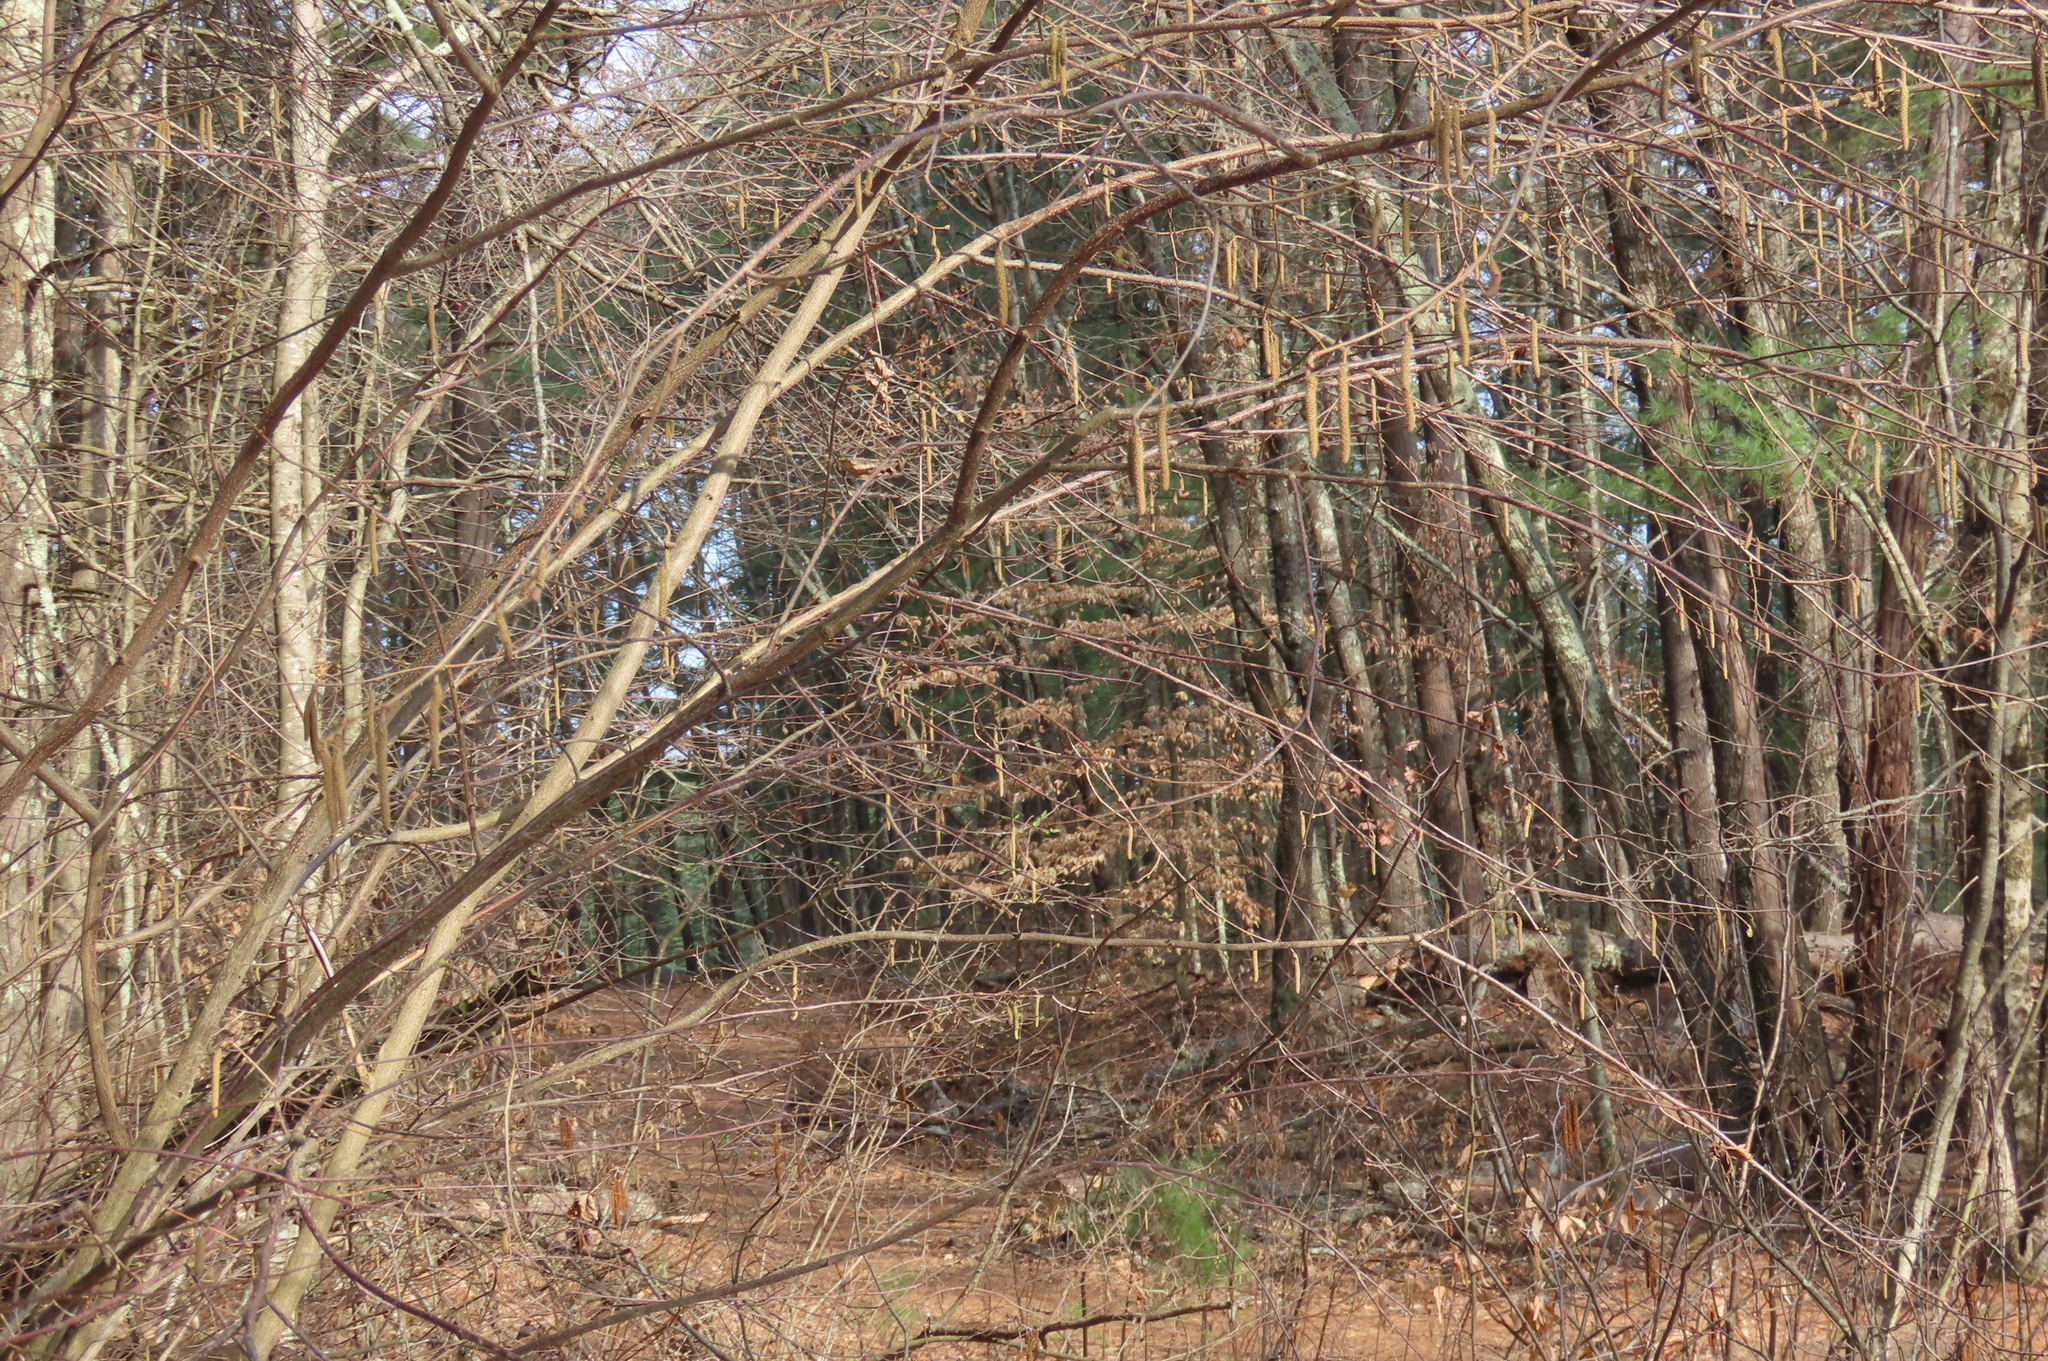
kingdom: Plantae
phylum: Tracheophyta
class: Magnoliopsida
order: Fagales
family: Betulaceae
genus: Corylus
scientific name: Corylus cornuta
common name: Beaked hazel
